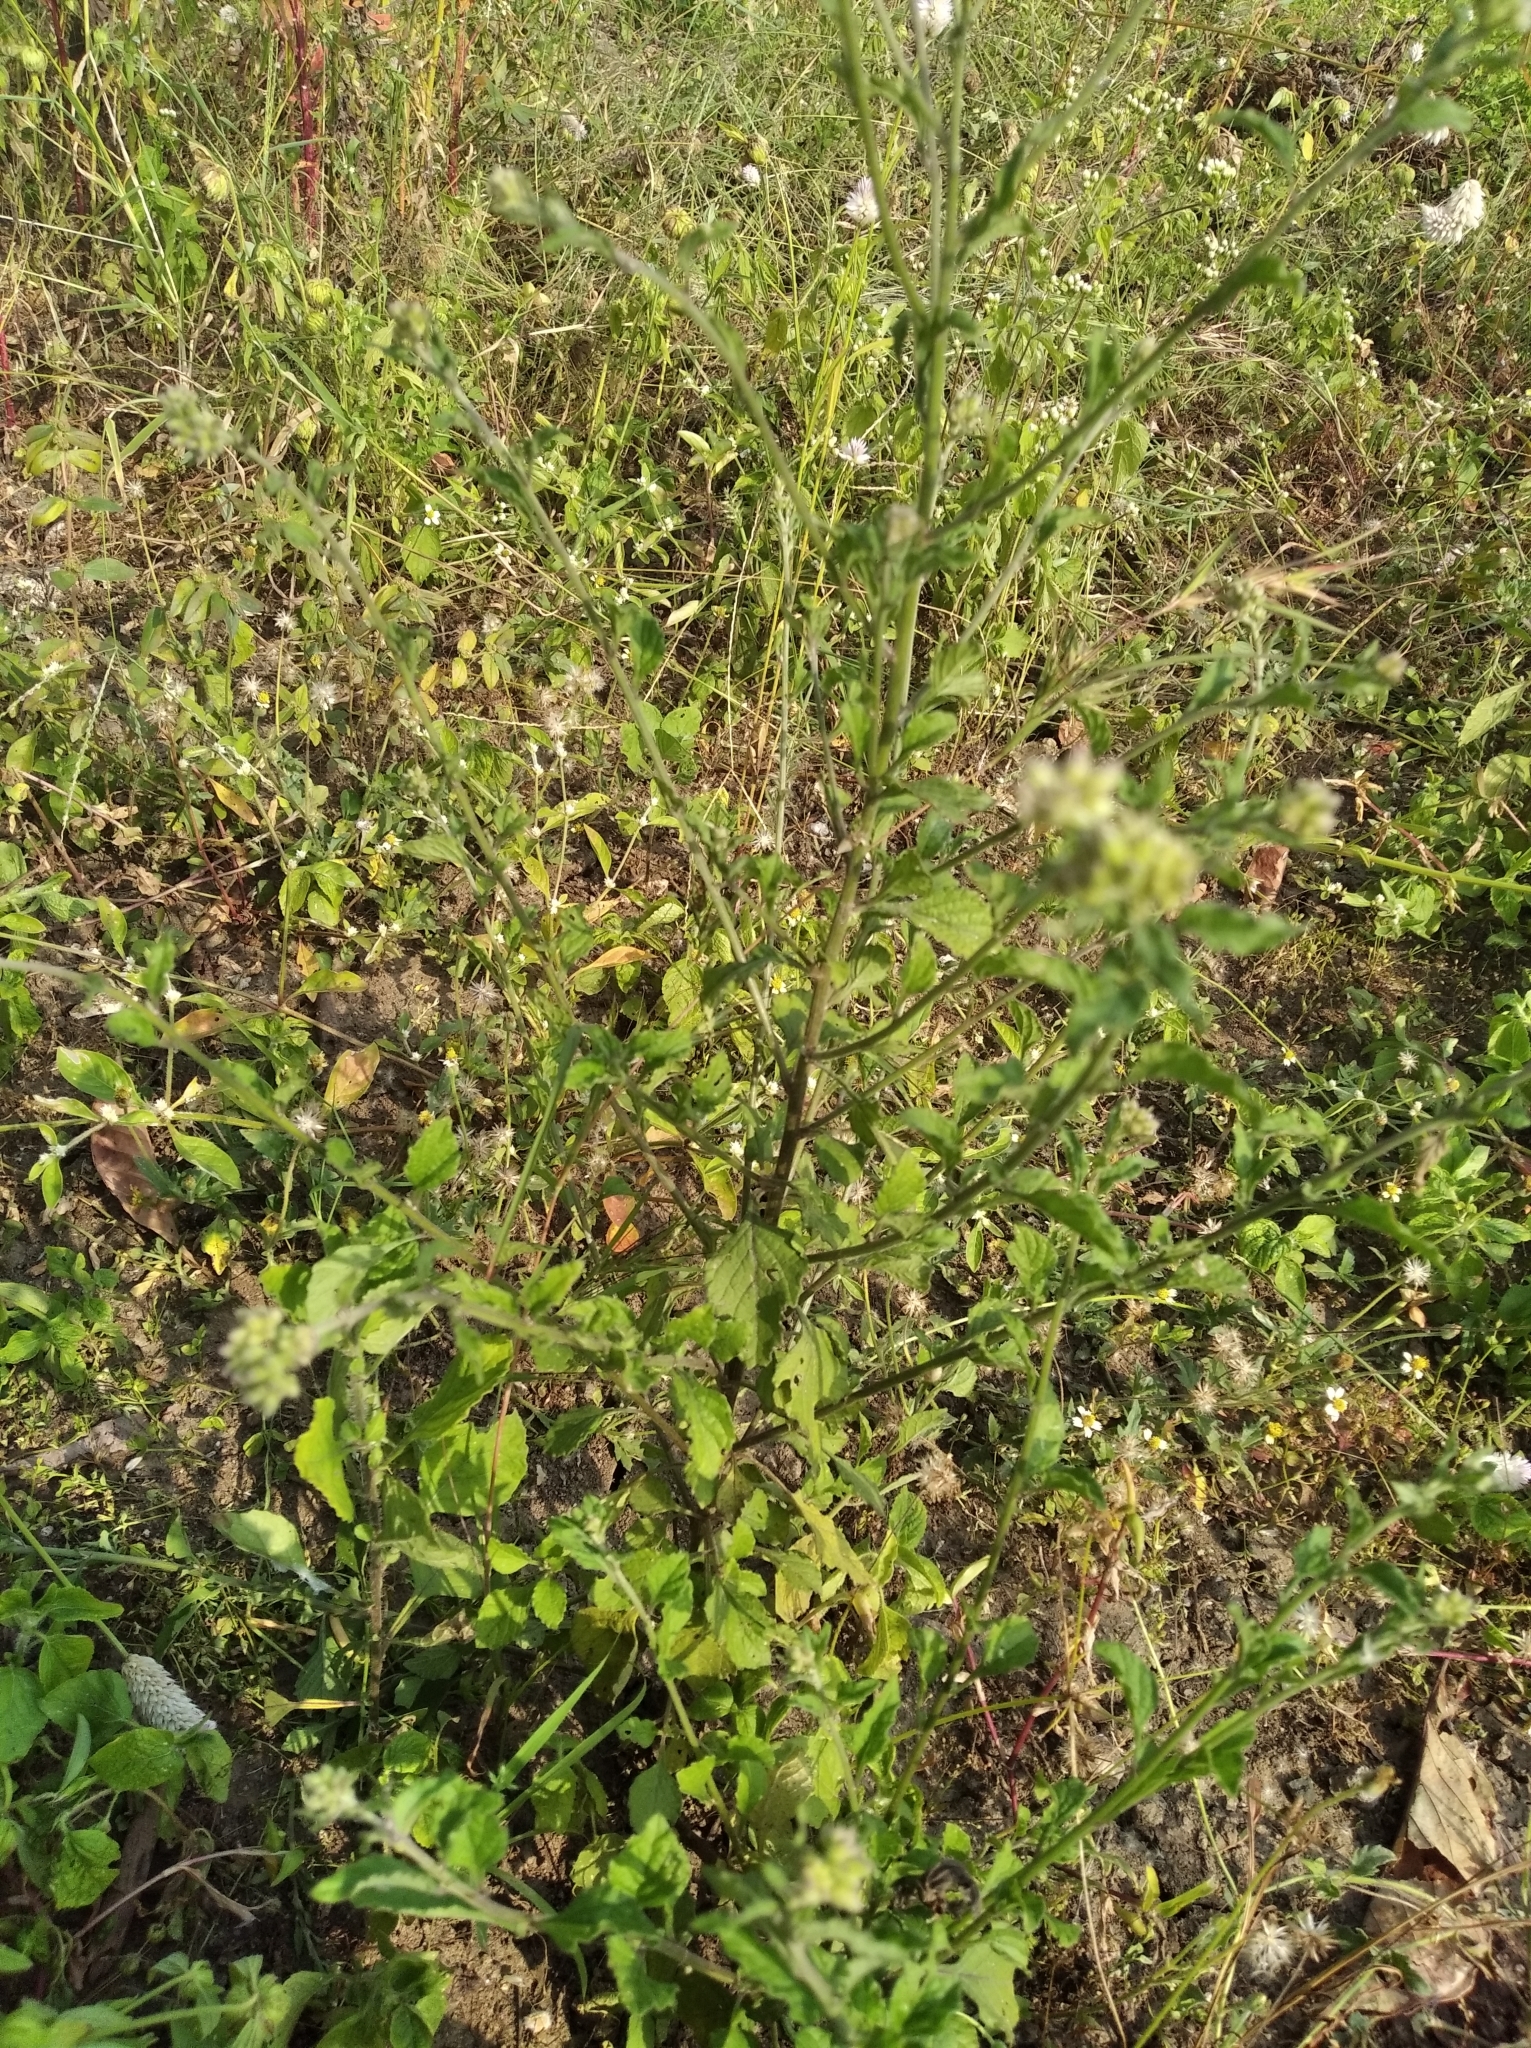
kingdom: Plantae
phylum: Tracheophyta
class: Magnoliopsida
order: Asterales
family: Asteraceae
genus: Cyanthillium
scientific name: Cyanthillium cinereum
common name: Little ironweed
